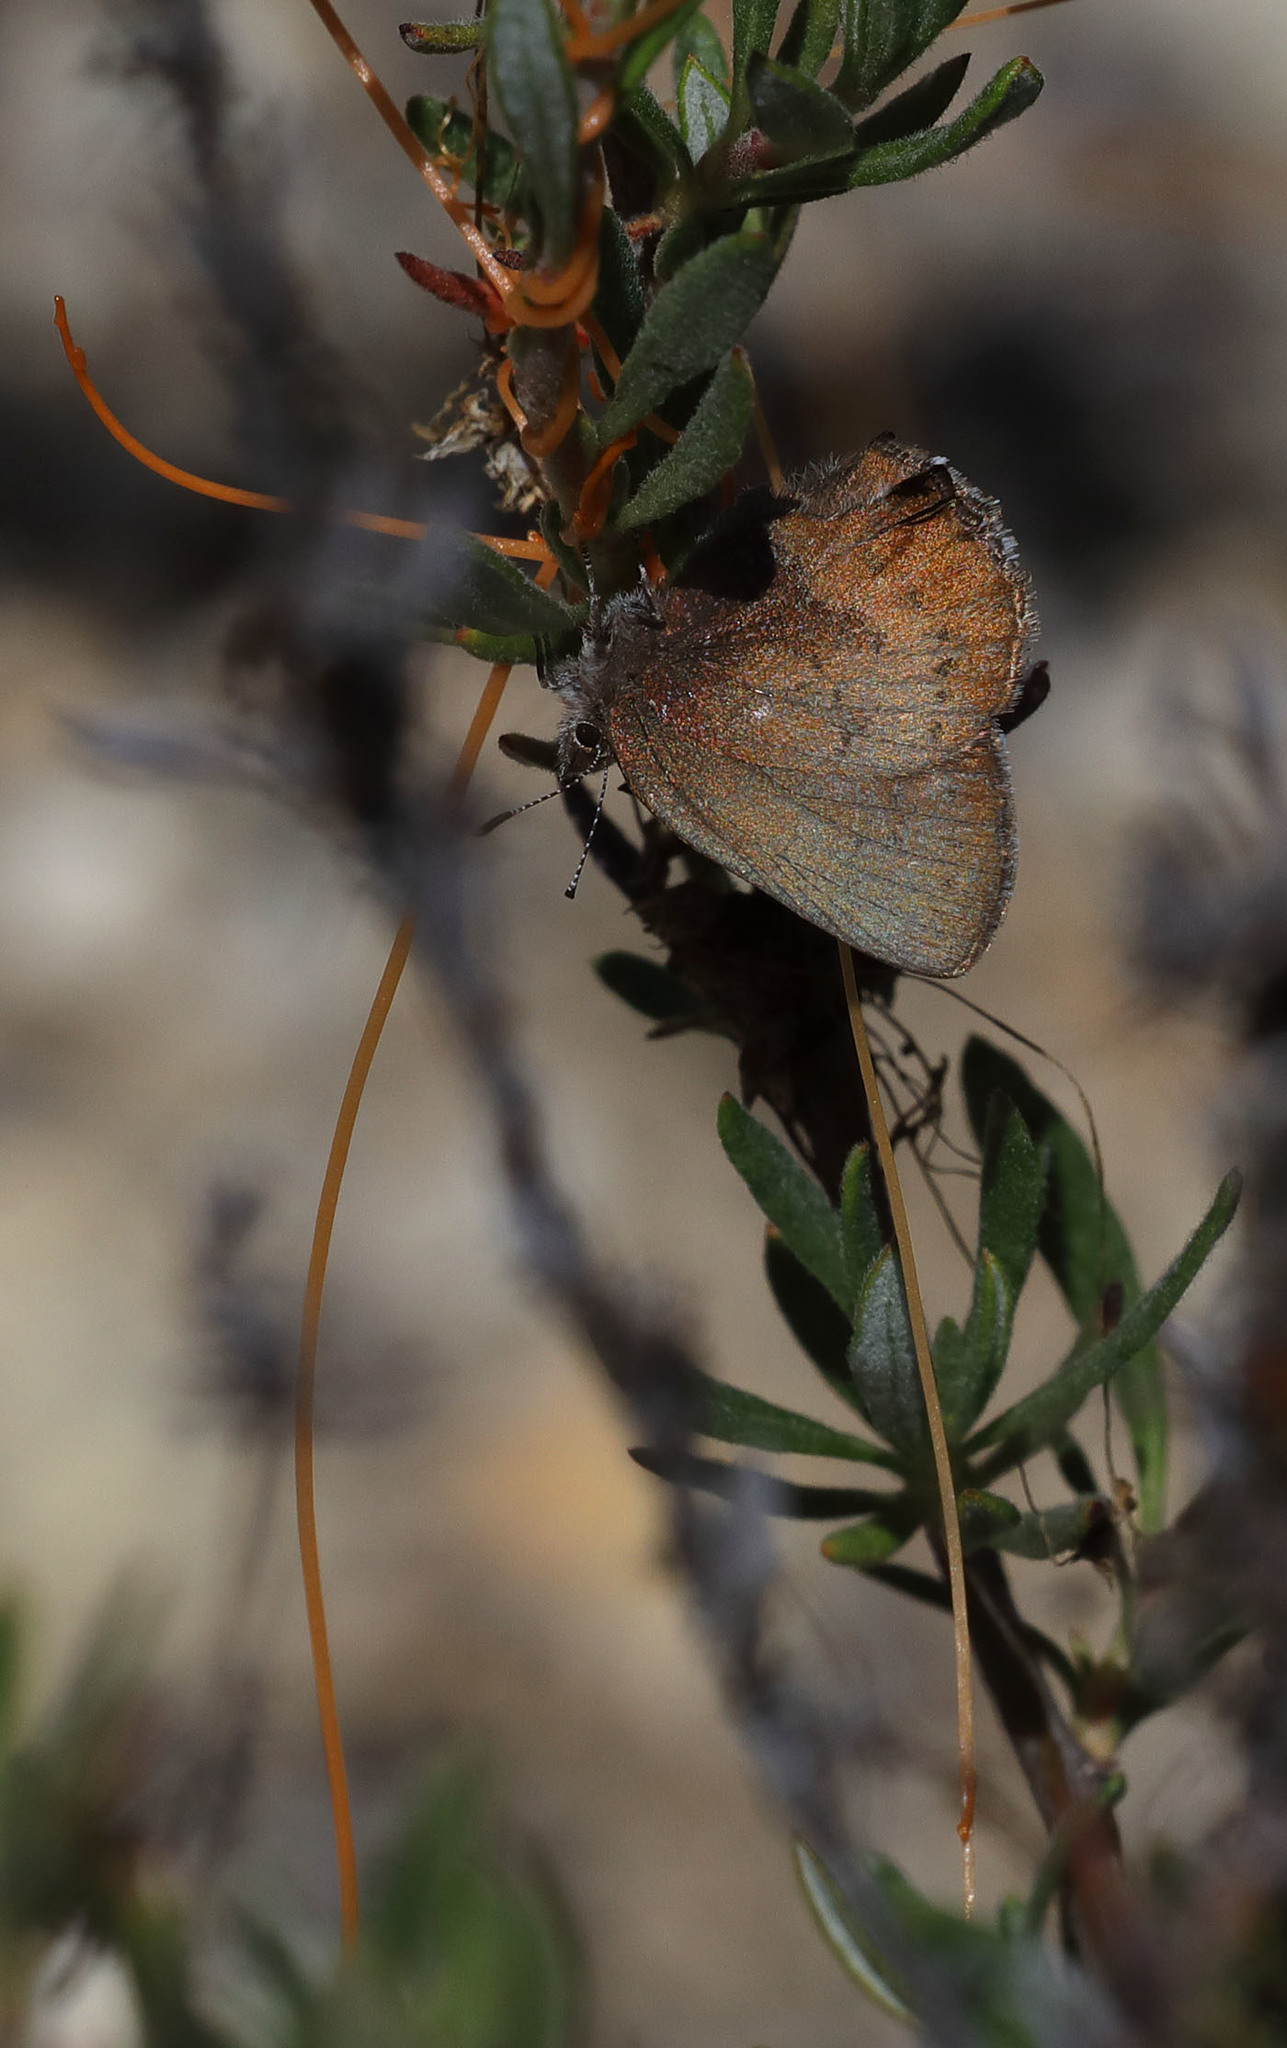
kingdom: Animalia
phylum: Arthropoda
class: Insecta
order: Lepidoptera
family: Lycaenidae
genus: Incisalia
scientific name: Incisalia irioides
